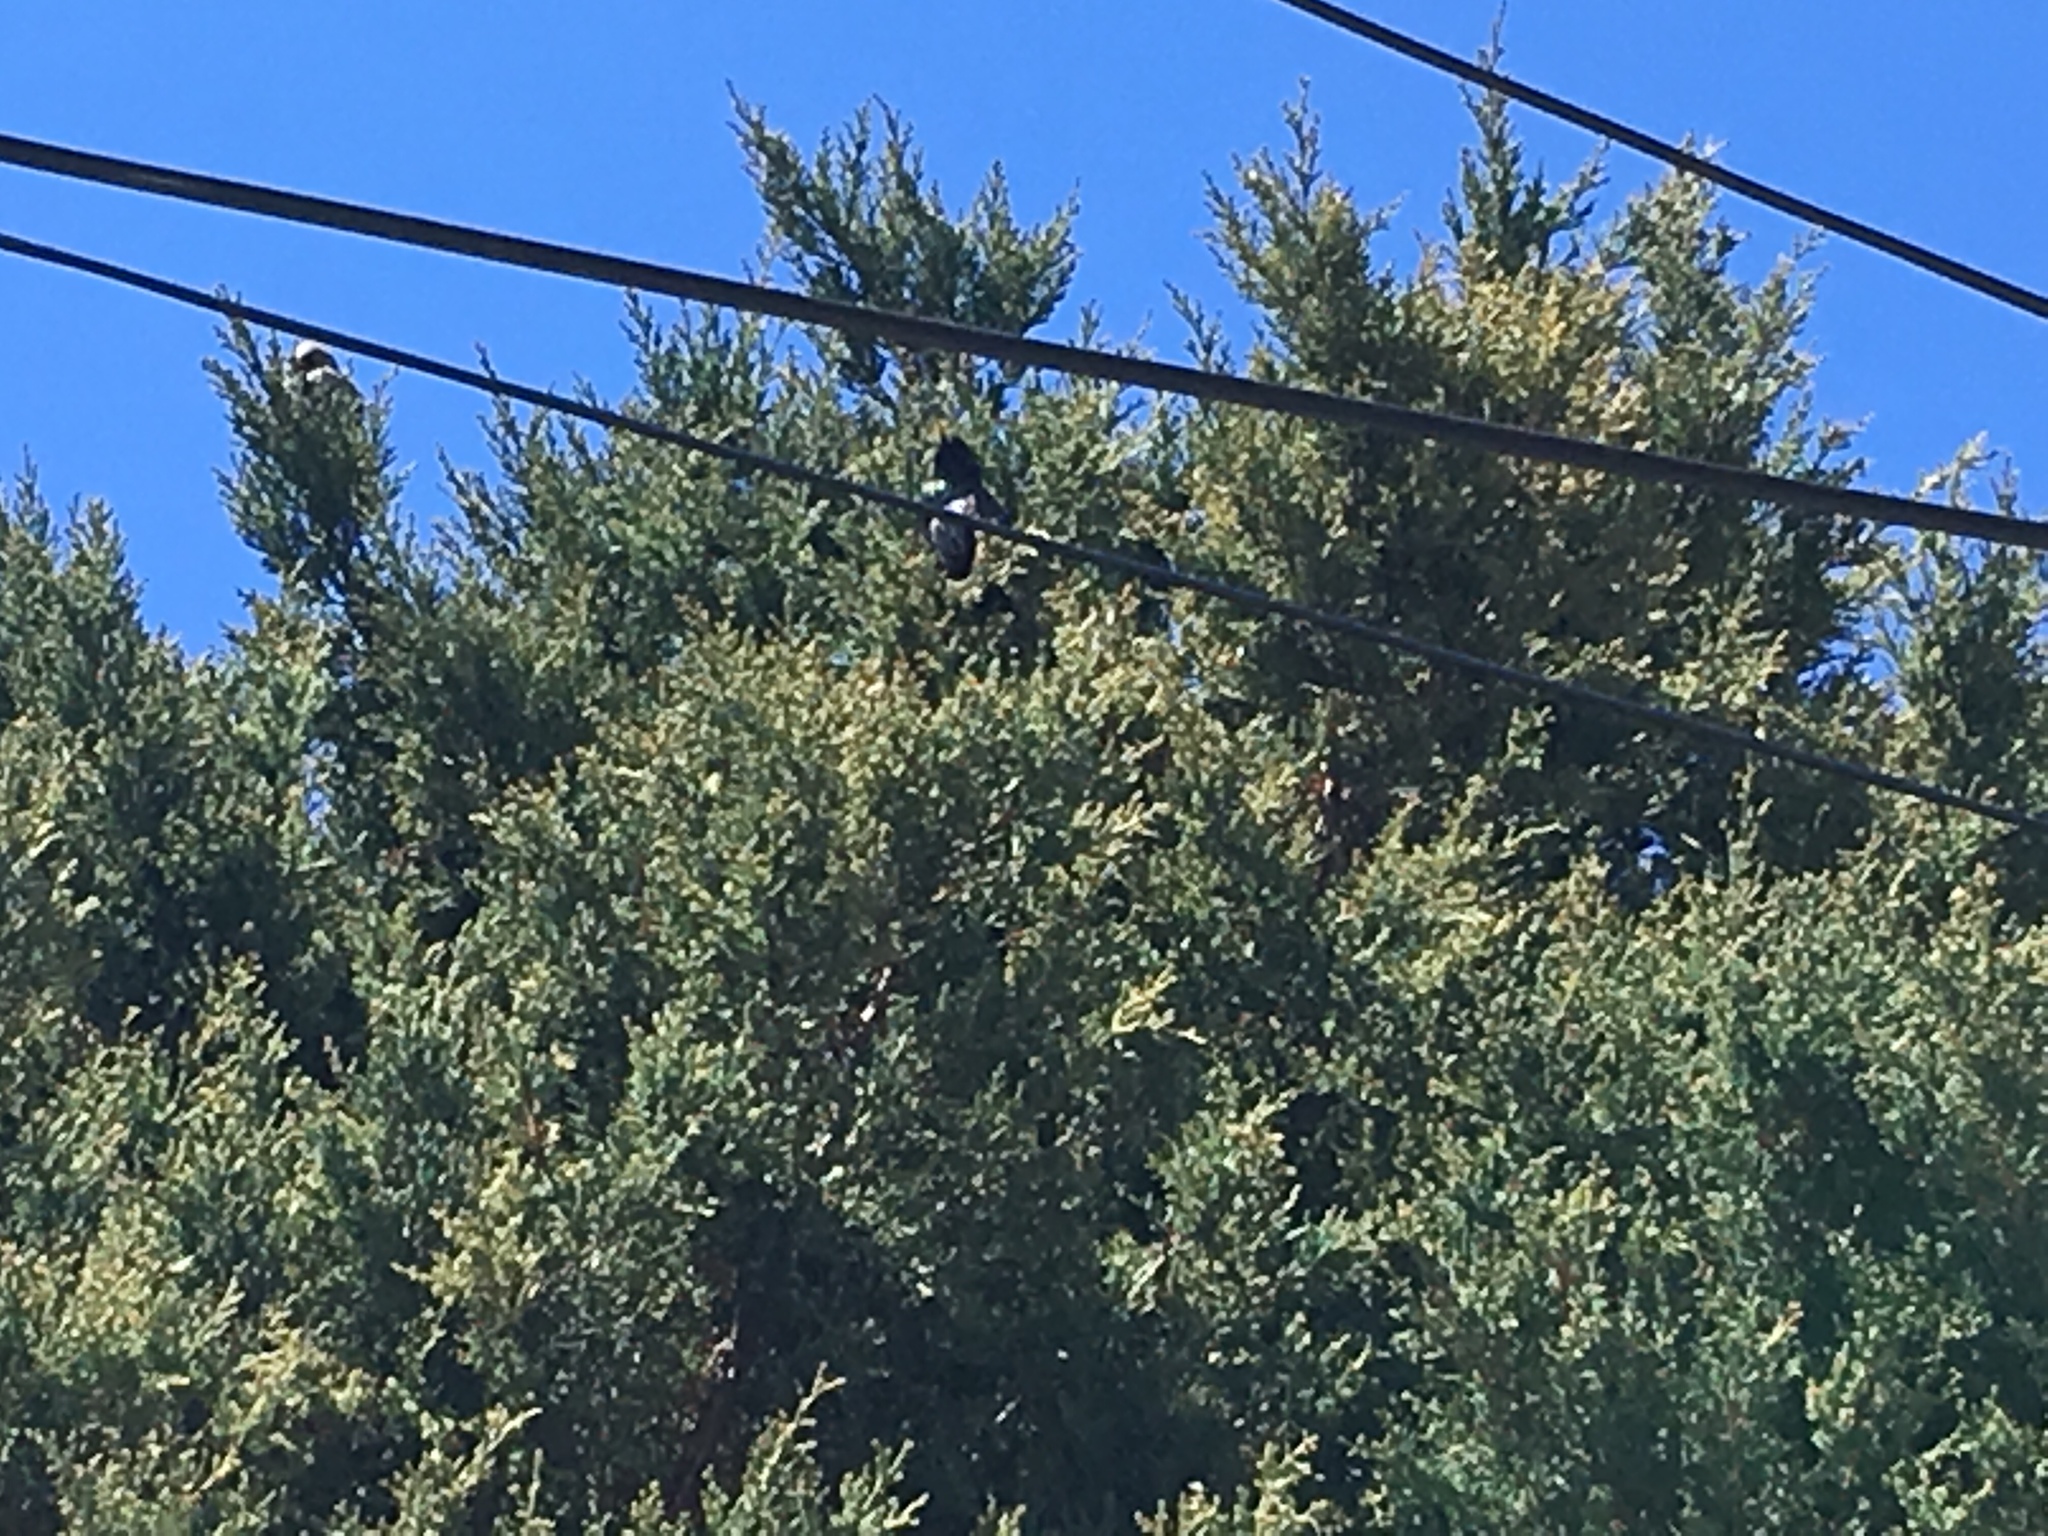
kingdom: Animalia
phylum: Chordata
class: Aves
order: Passeriformes
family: Sturnidae
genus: Sturnus
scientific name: Sturnus vulgaris
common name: Common starling
